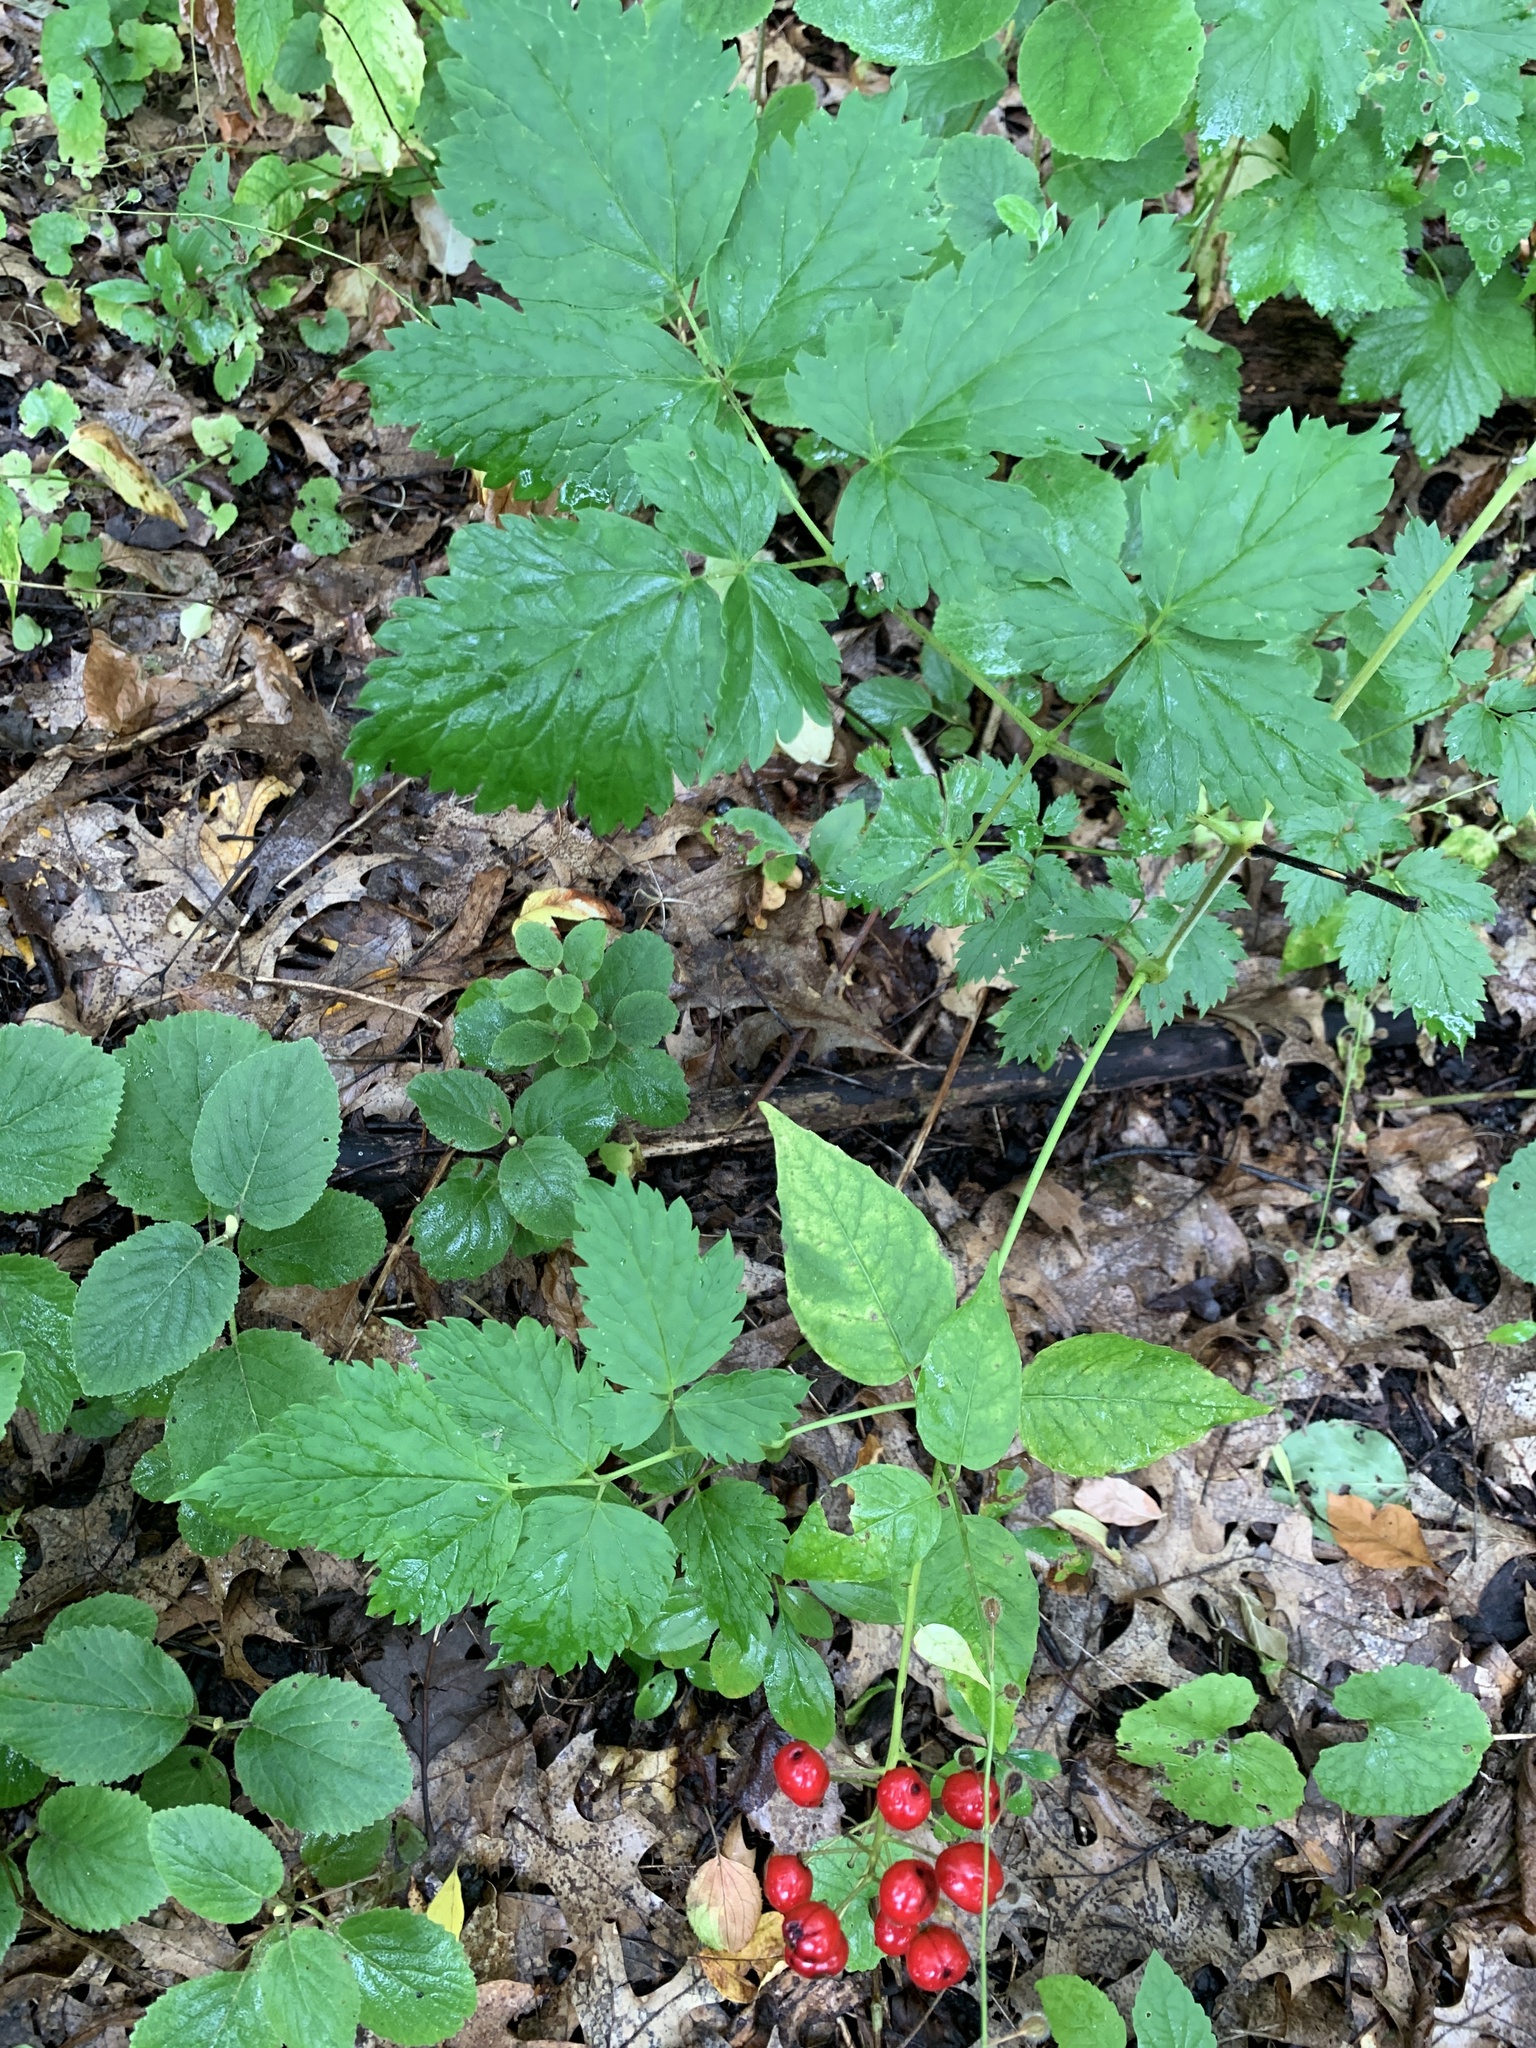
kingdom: Plantae
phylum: Tracheophyta
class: Magnoliopsida
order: Ranunculales
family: Ranunculaceae
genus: Actaea
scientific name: Actaea rubra
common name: Red baneberry
